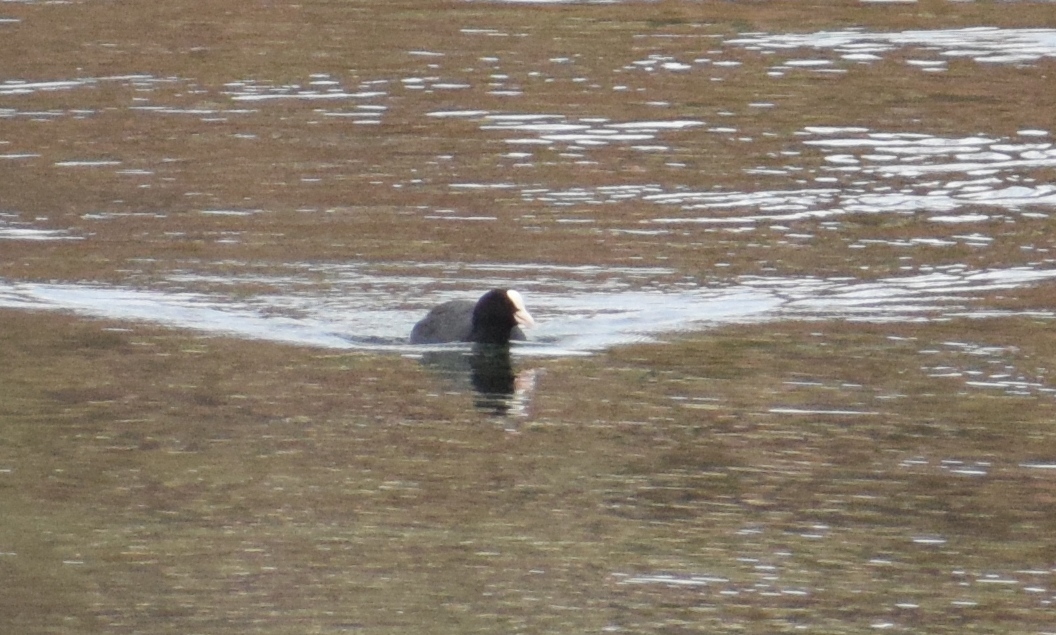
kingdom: Animalia
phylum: Chordata
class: Aves
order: Gruiformes
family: Rallidae
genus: Fulica
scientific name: Fulica atra
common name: Eurasian coot
